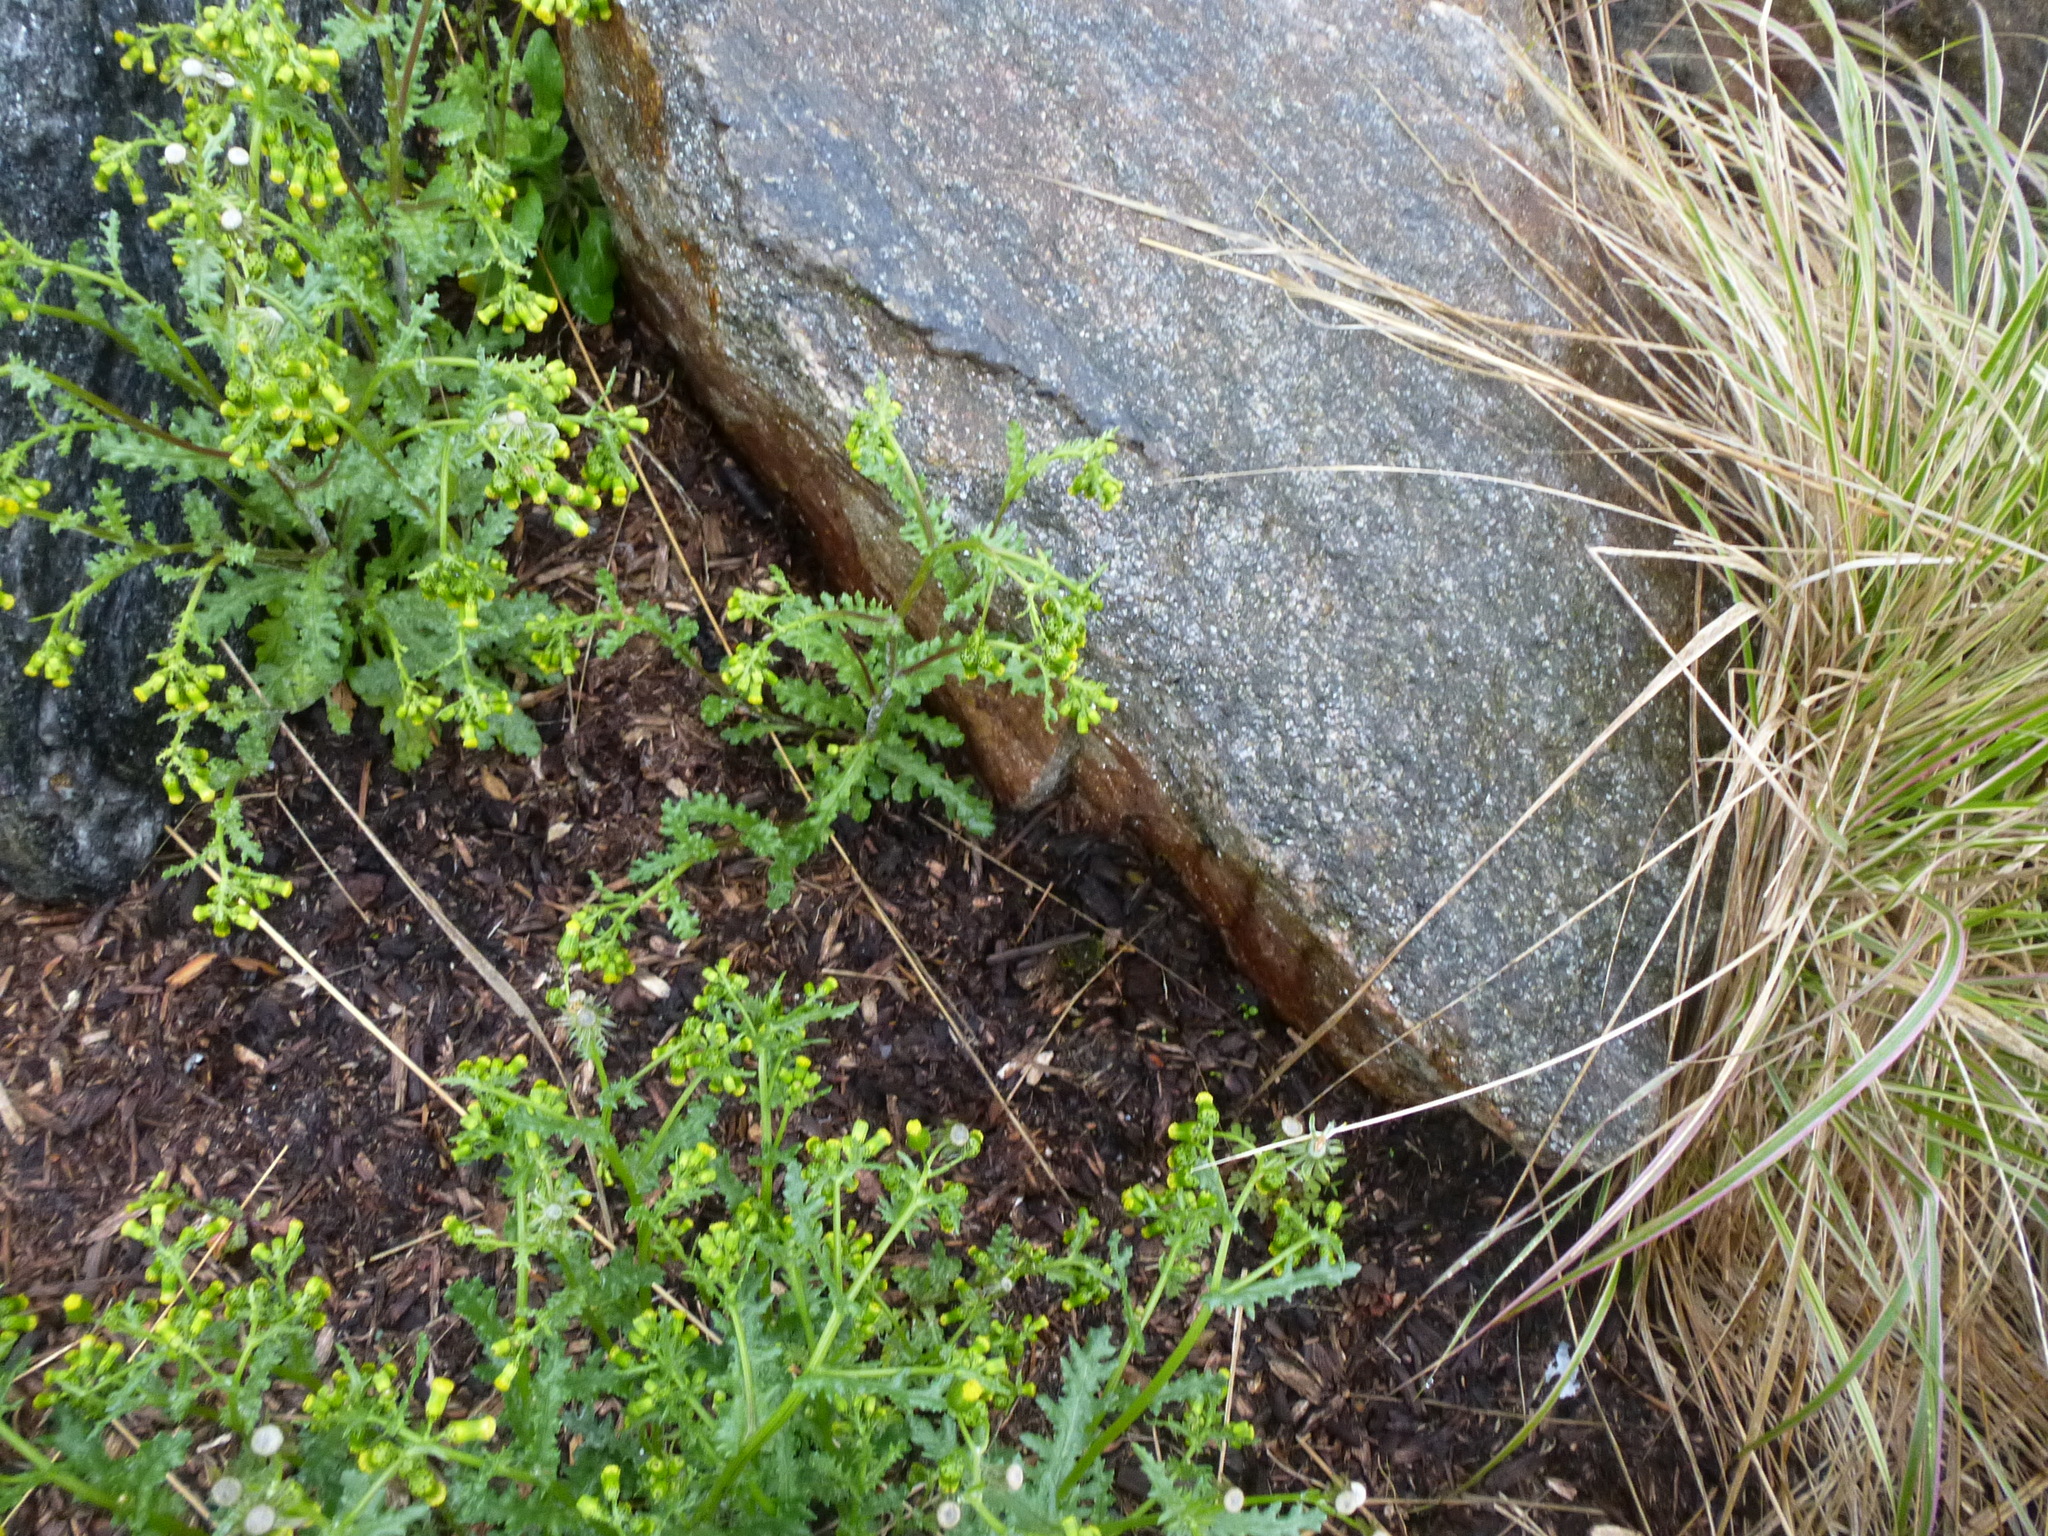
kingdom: Plantae
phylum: Tracheophyta
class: Magnoliopsida
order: Asterales
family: Asteraceae
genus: Senecio
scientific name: Senecio vulgaris
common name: Old-man-in-the-spring
